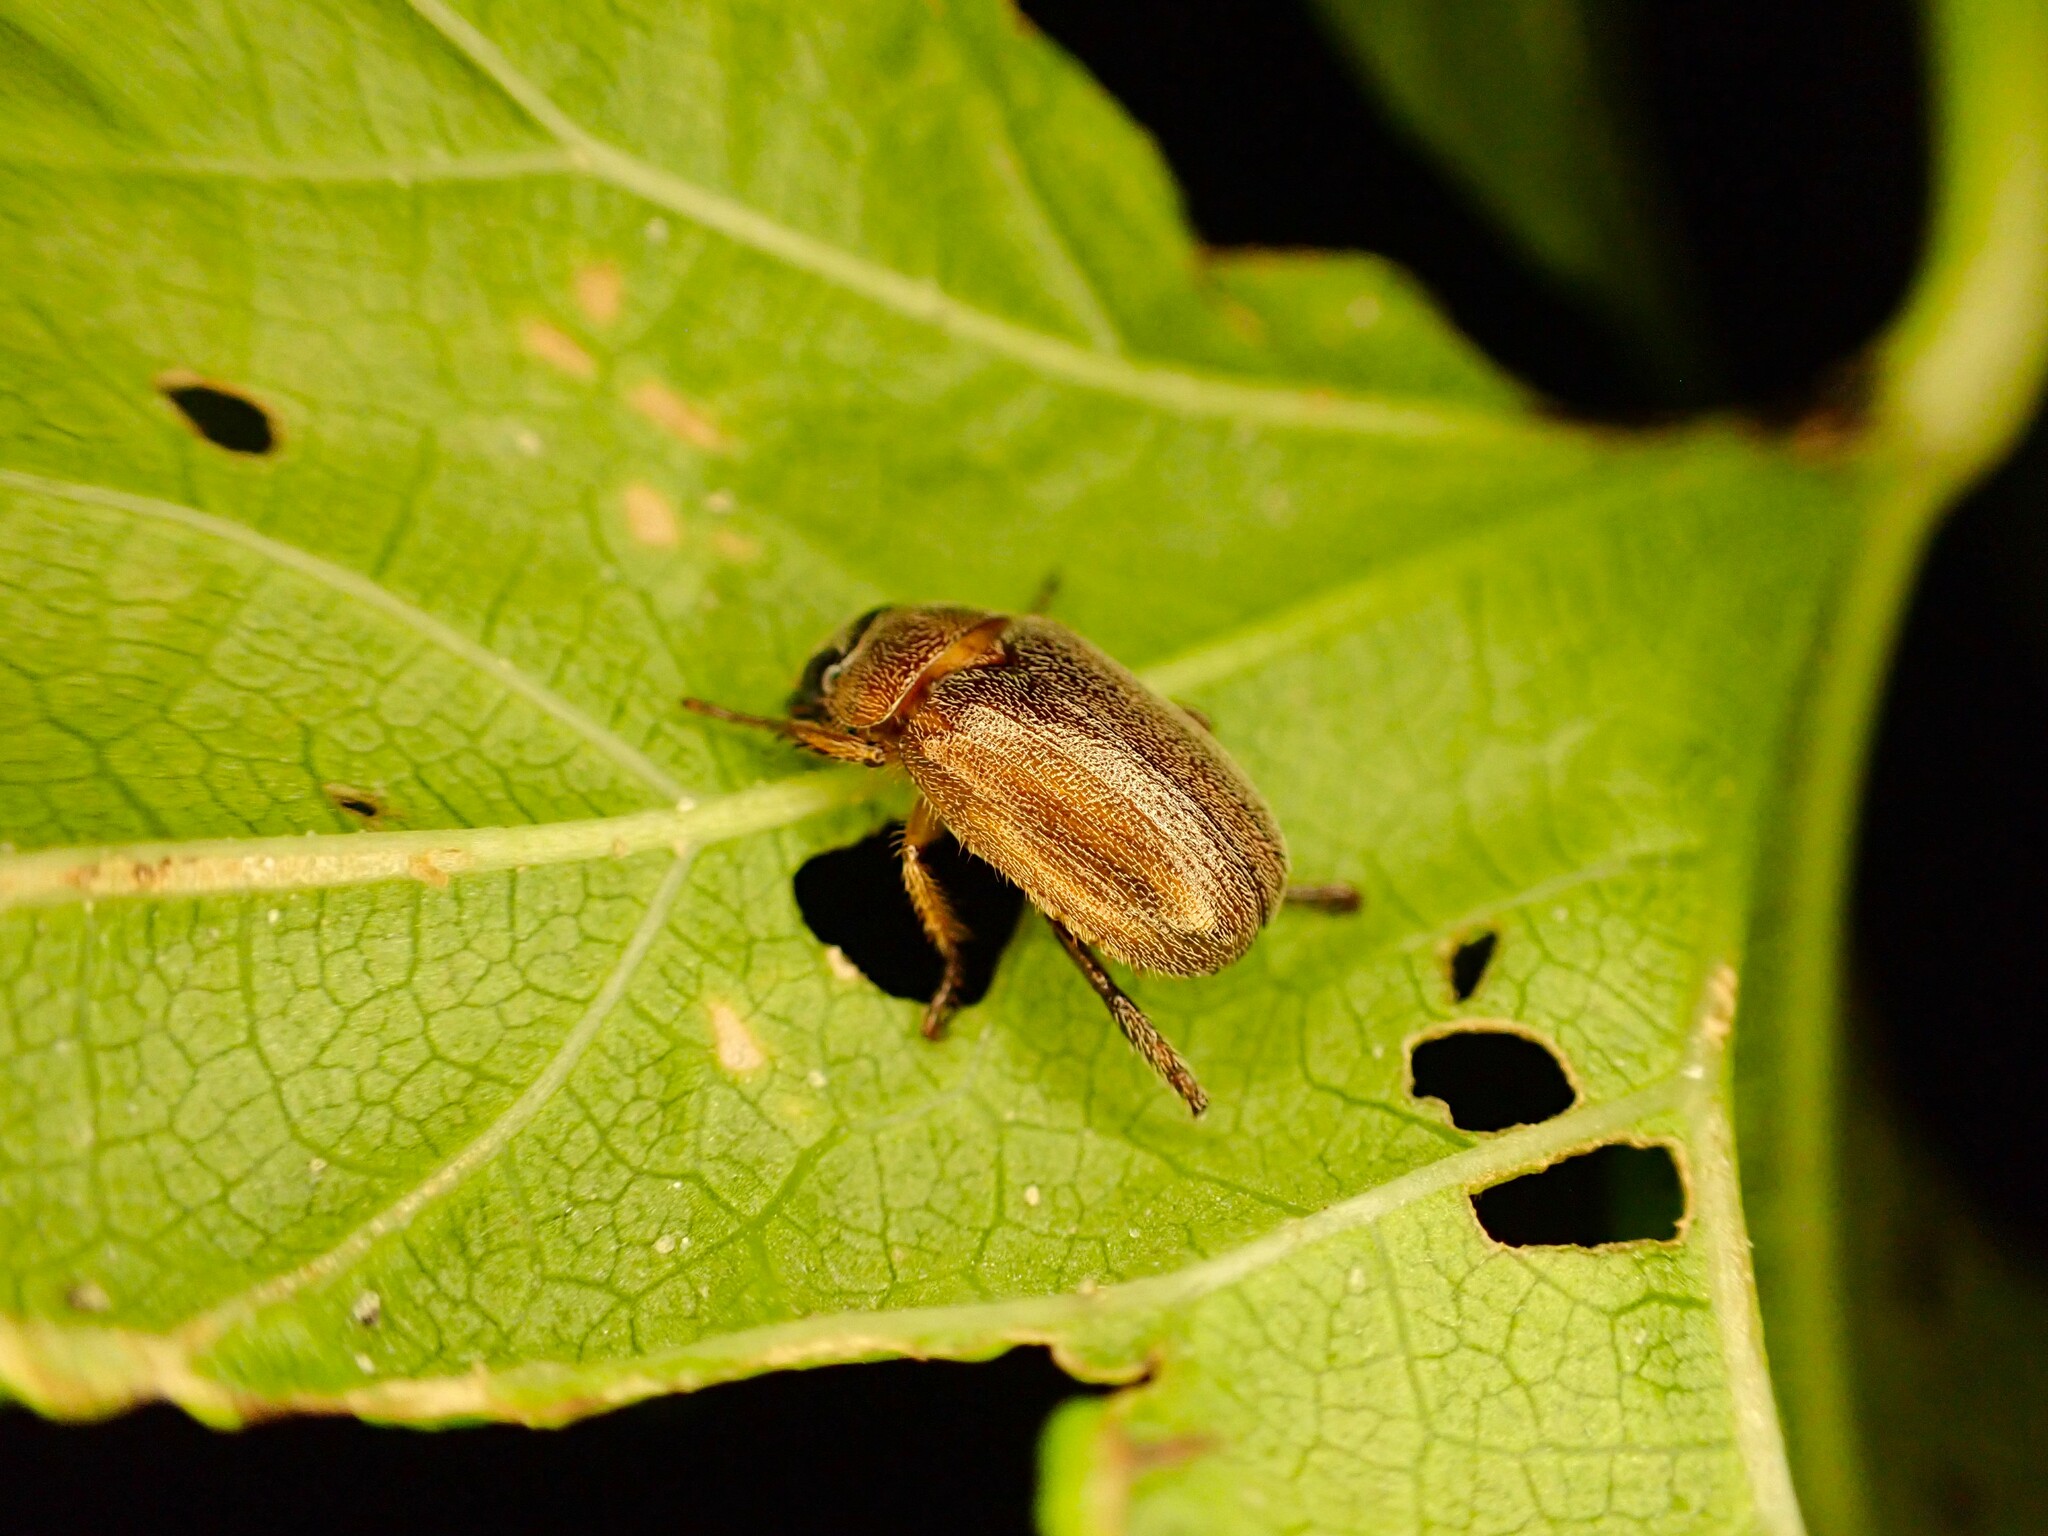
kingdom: Animalia
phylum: Arthropoda
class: Insecta
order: Coleoptera
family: Scarabaeidae
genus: Adoretus
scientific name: Adoretus sinicus
